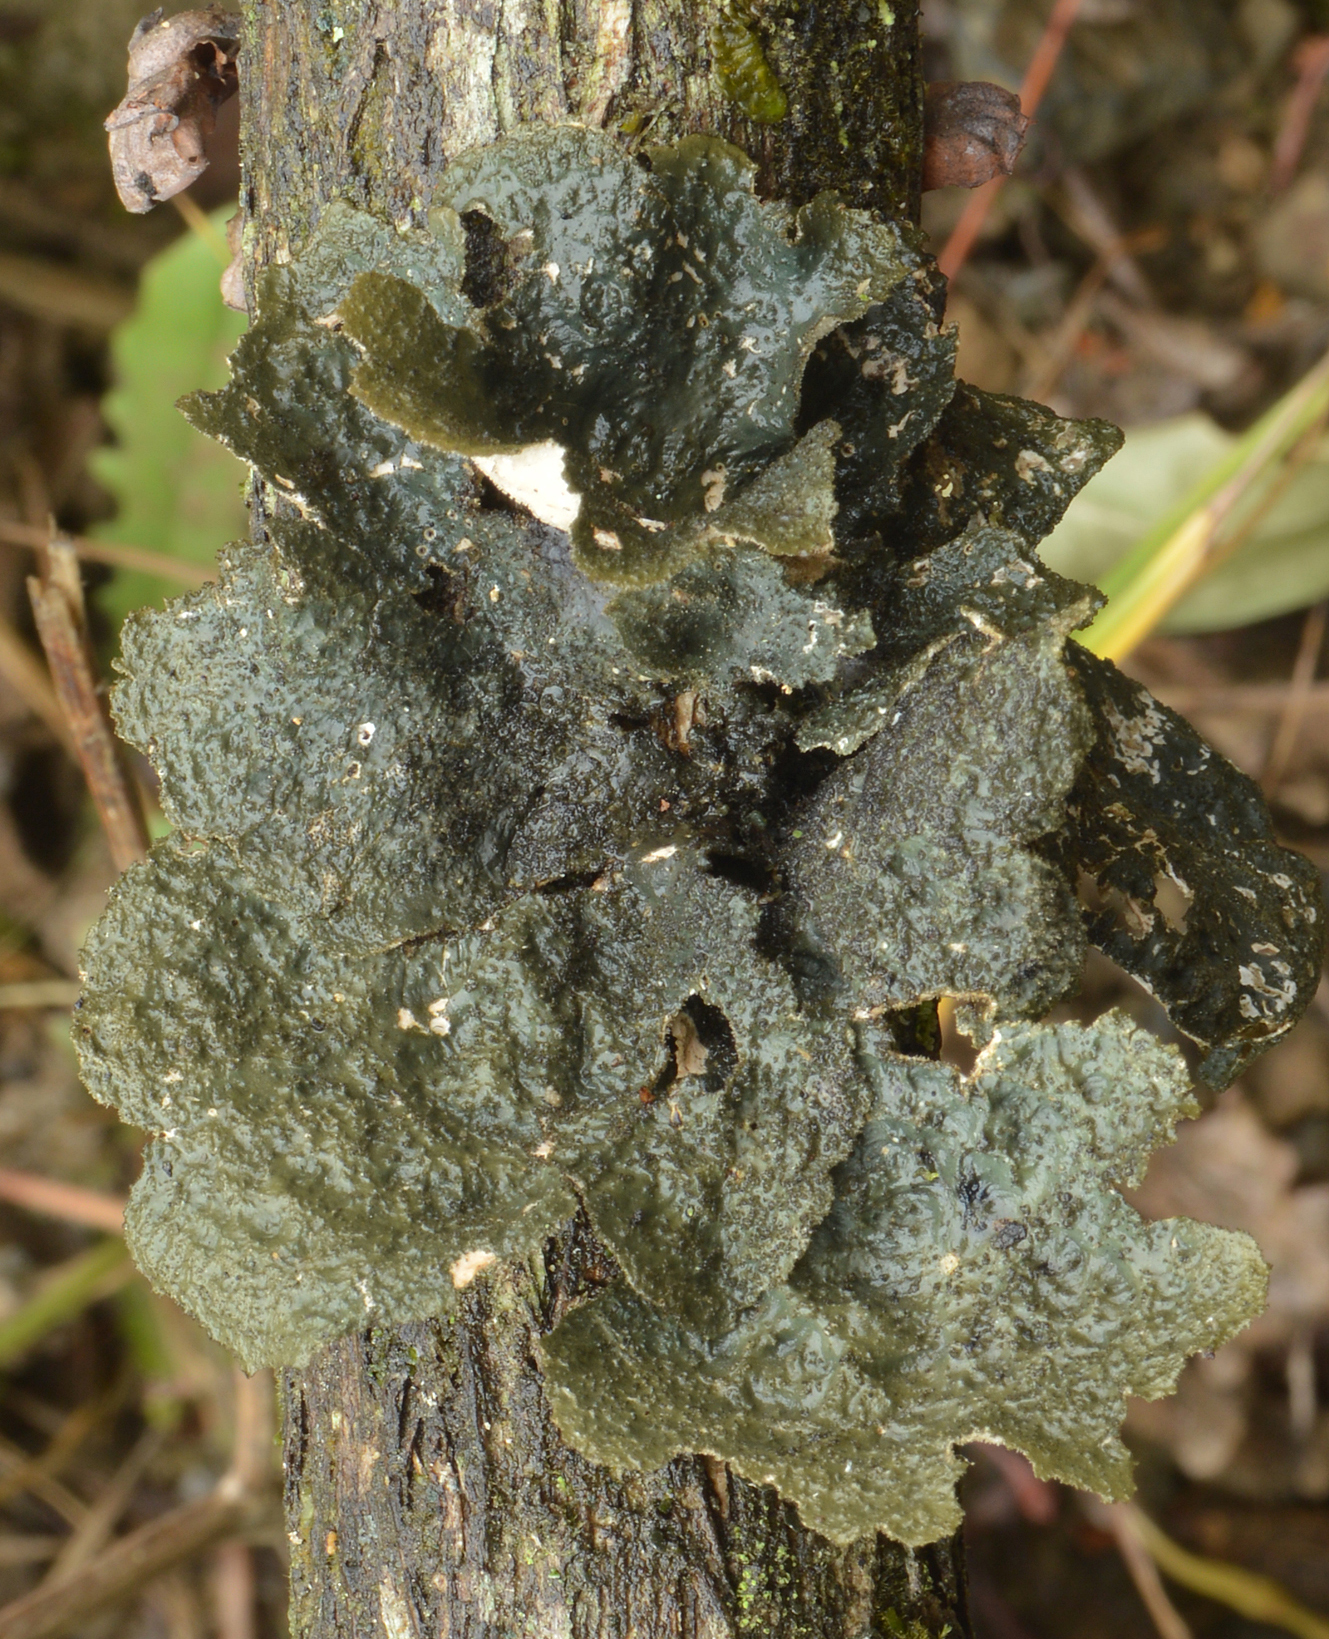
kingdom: Fungi
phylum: Ascomycota
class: Lecanoromycetes
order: Peltigerales
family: Lobariaceae
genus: Sticta
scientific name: Sticta fuliginosa
